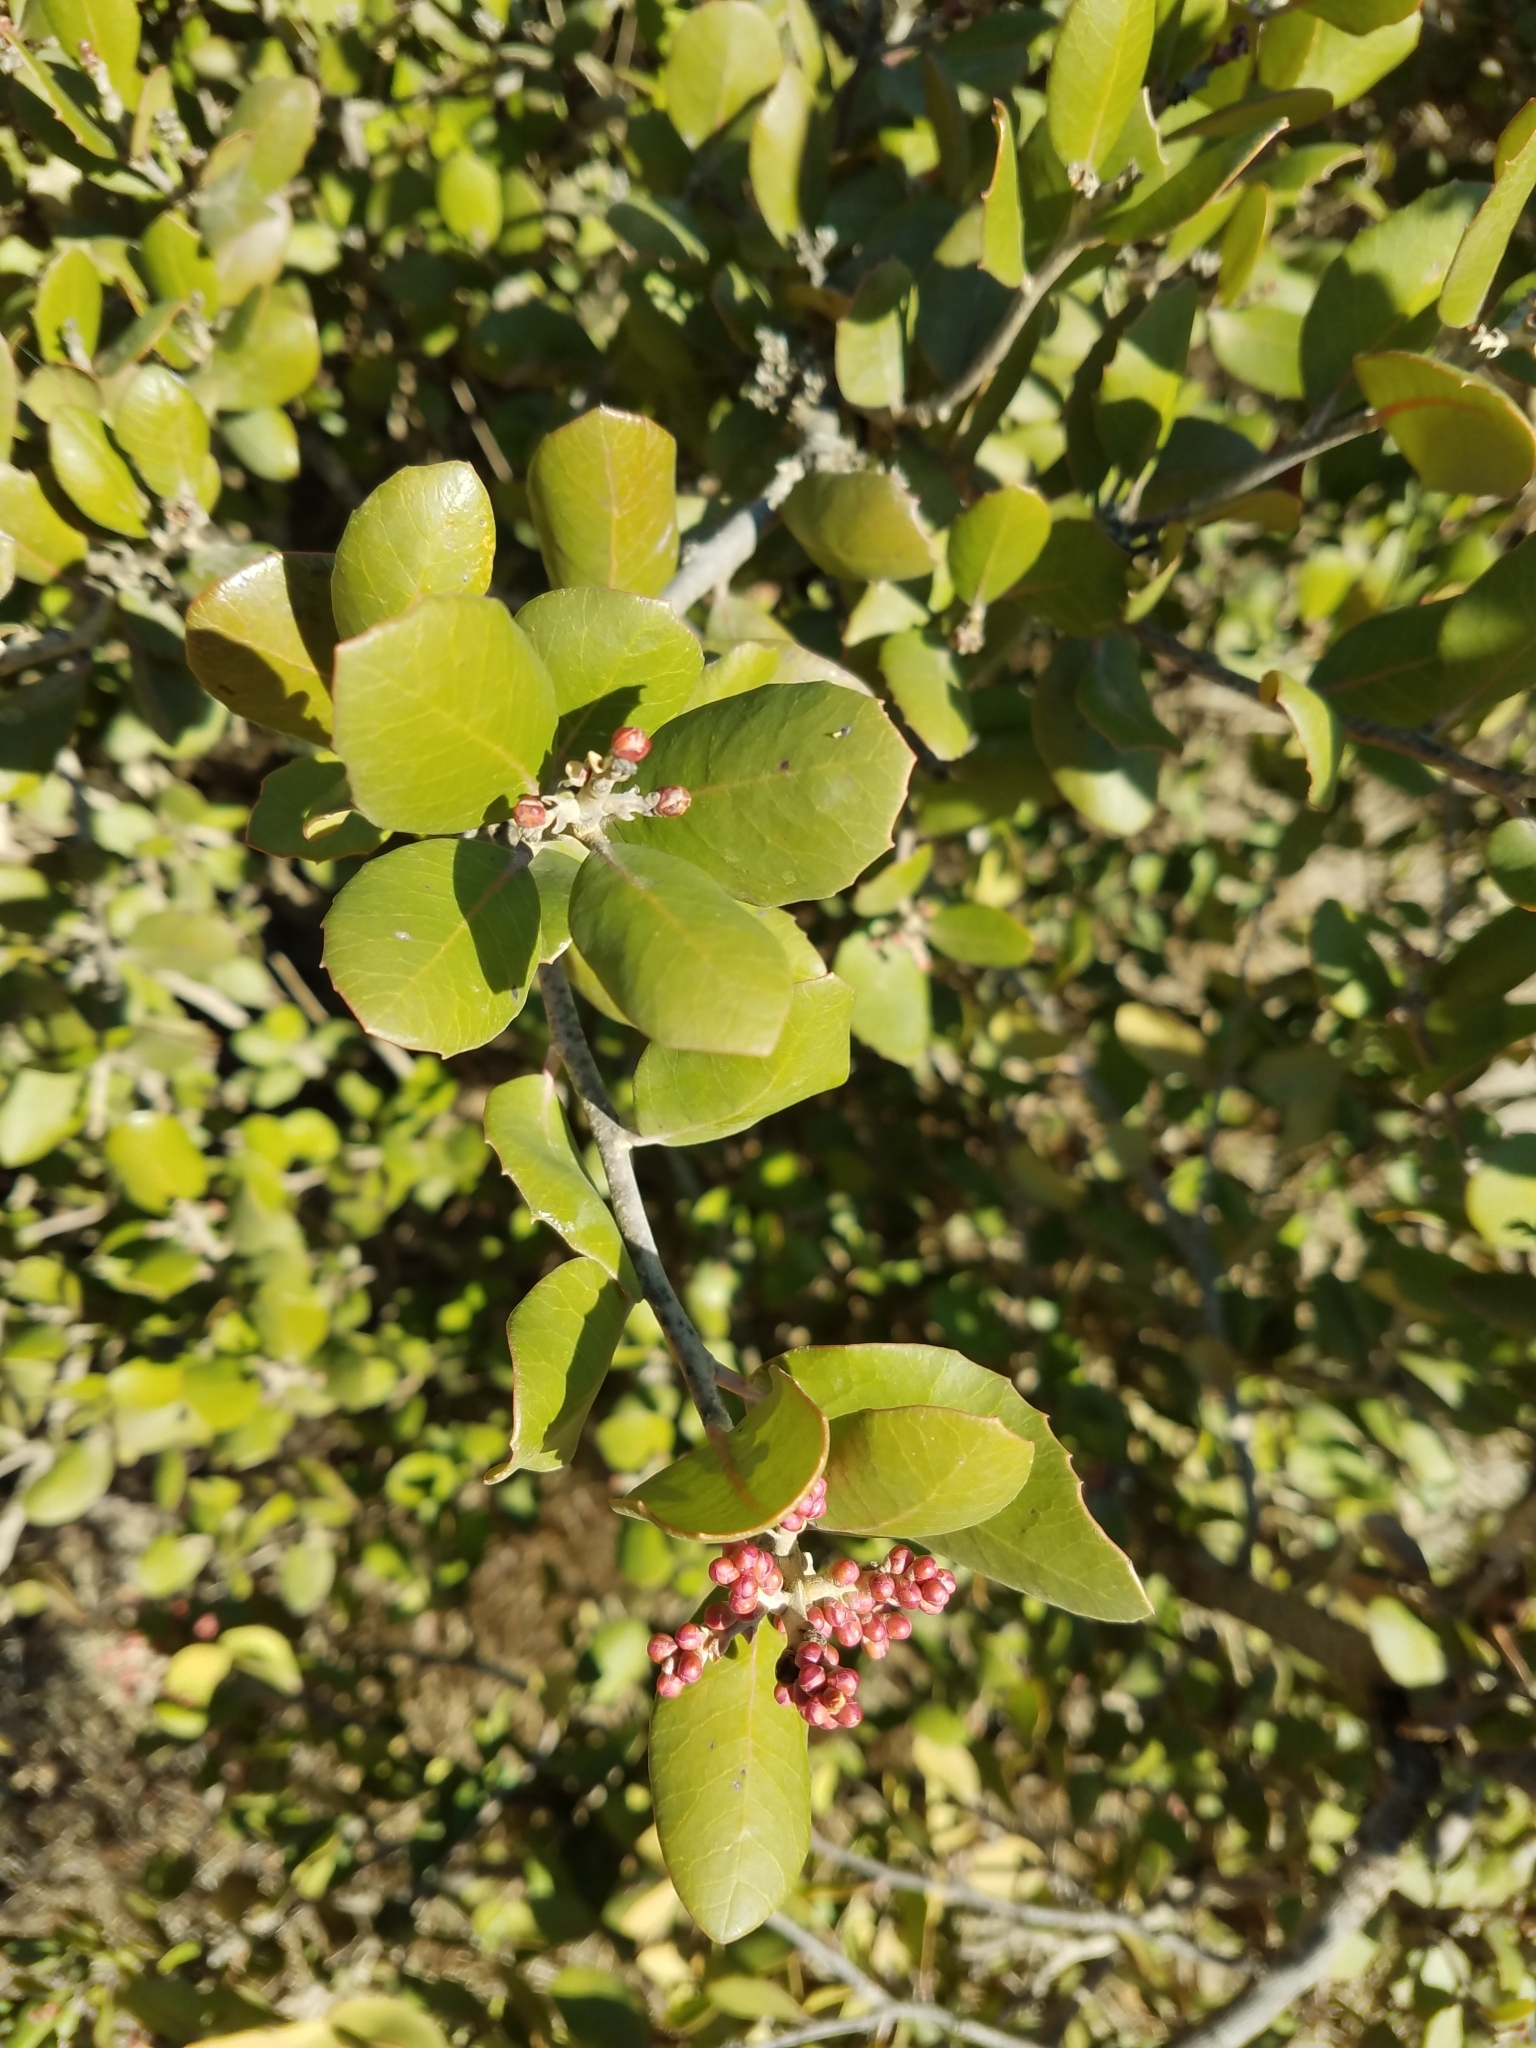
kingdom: Plantae
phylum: Tracheophyta
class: Magnoliopsida
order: Sapindales
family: Anacardiaceae
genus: Rhus
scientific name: Rhus integrifolia
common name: Lemonade sumac
